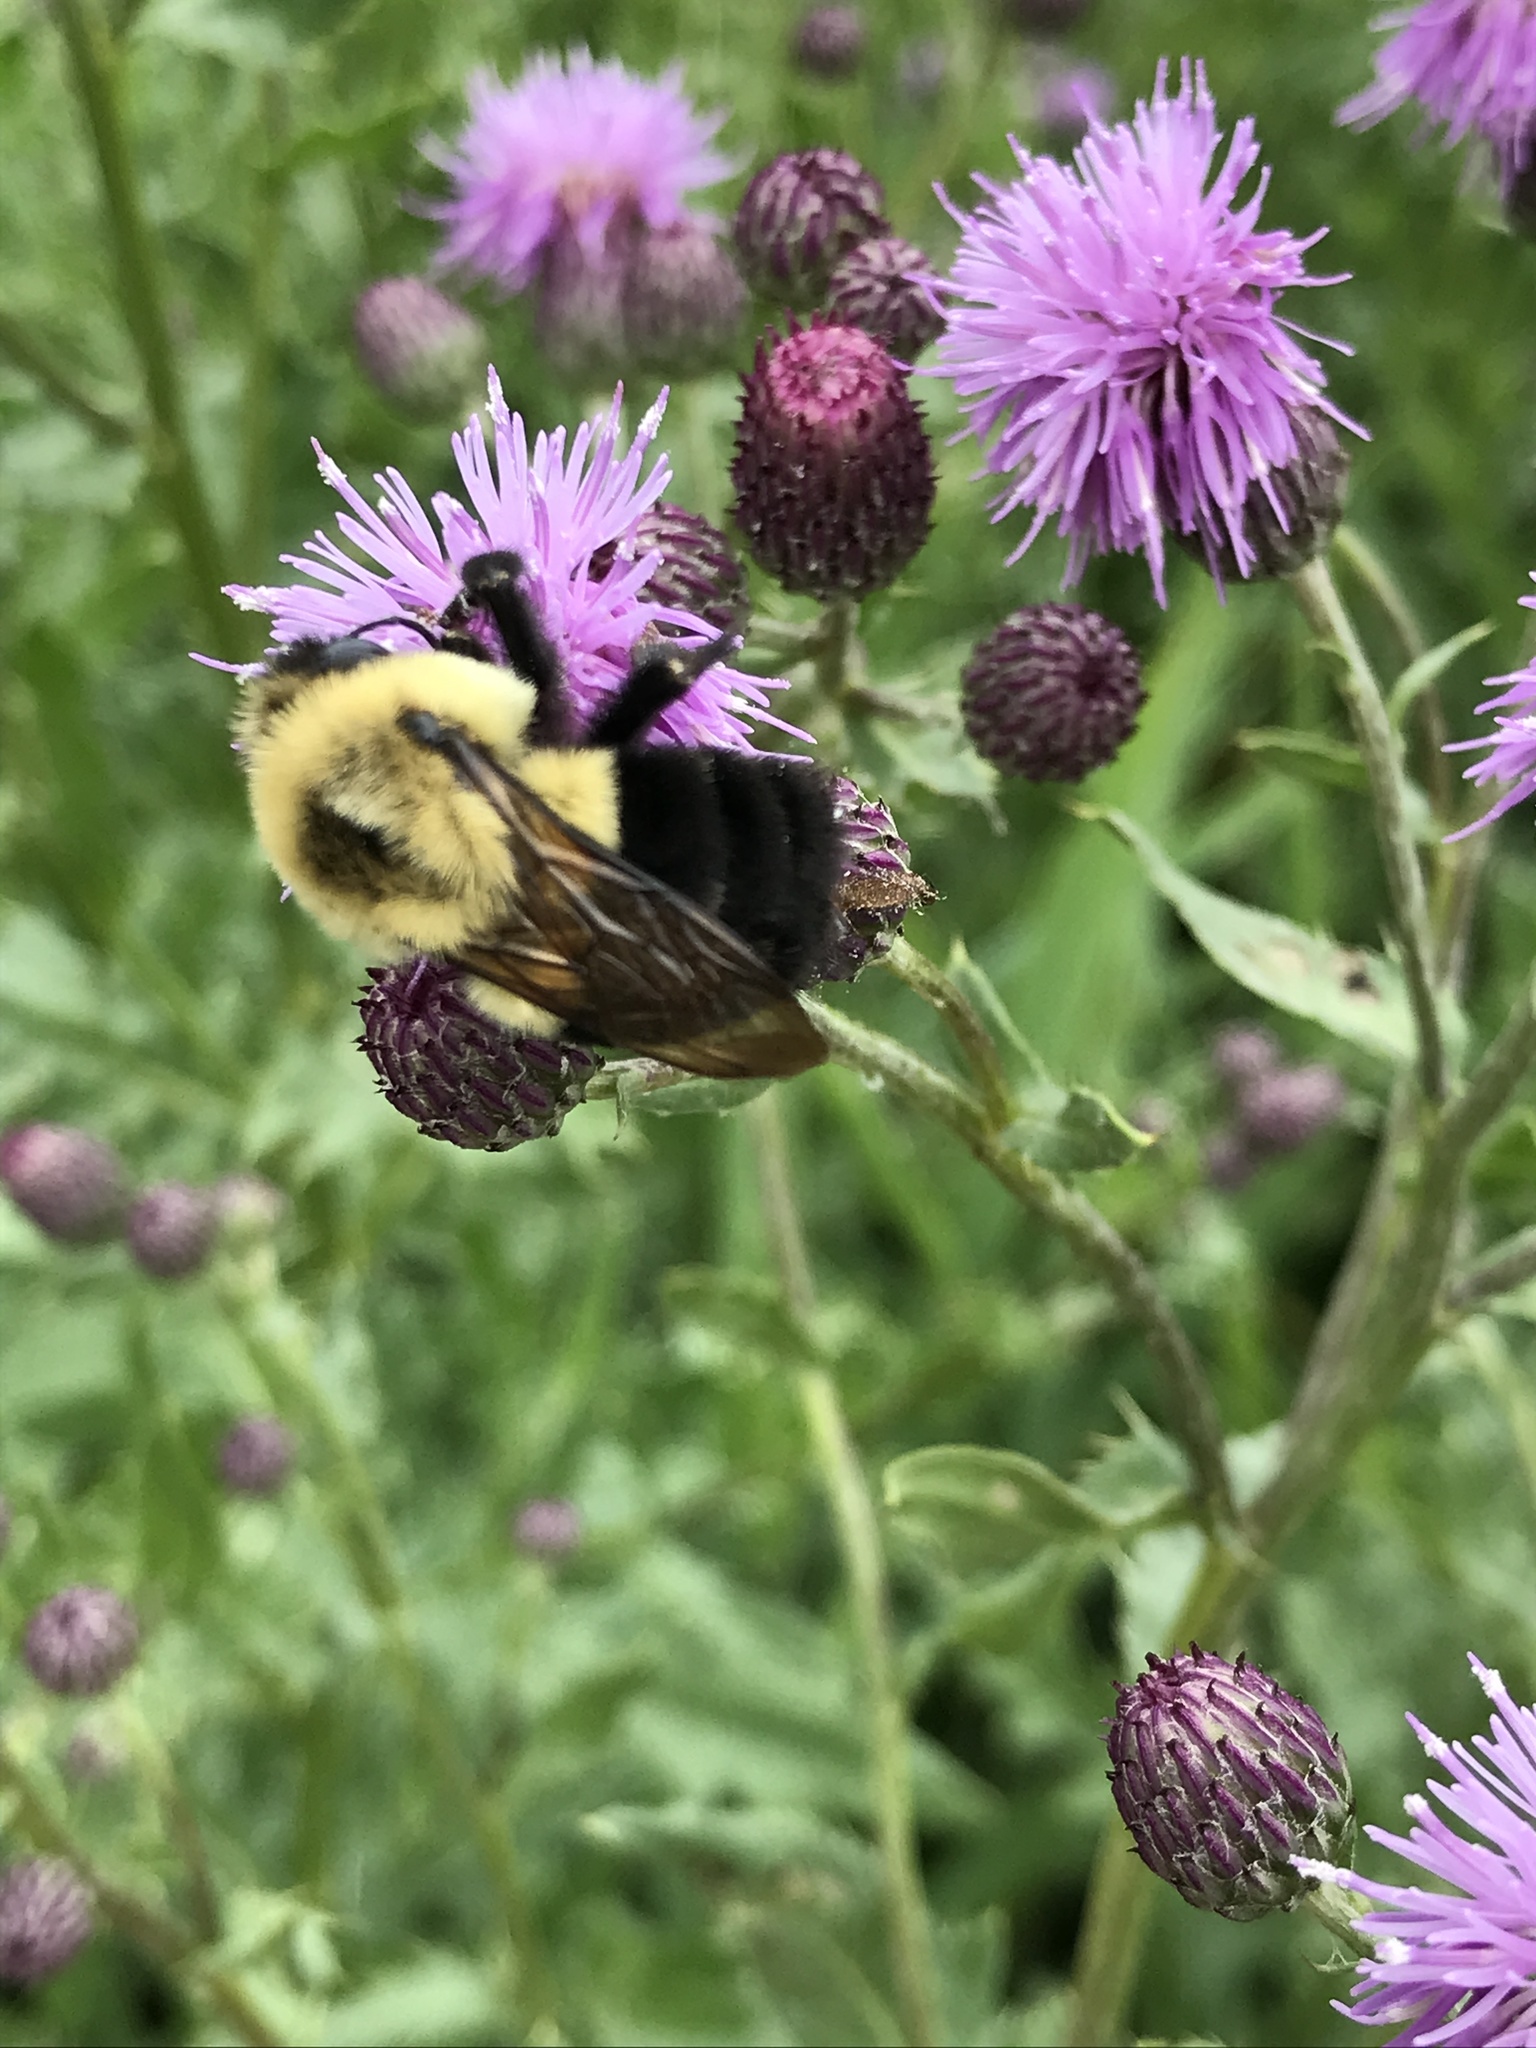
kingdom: Animalia
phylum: Arthropoda
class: Insecta
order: Hymenoptera
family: Apidae
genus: Bombus
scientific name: Bombus impatiens
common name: Common eastern bumble bee
